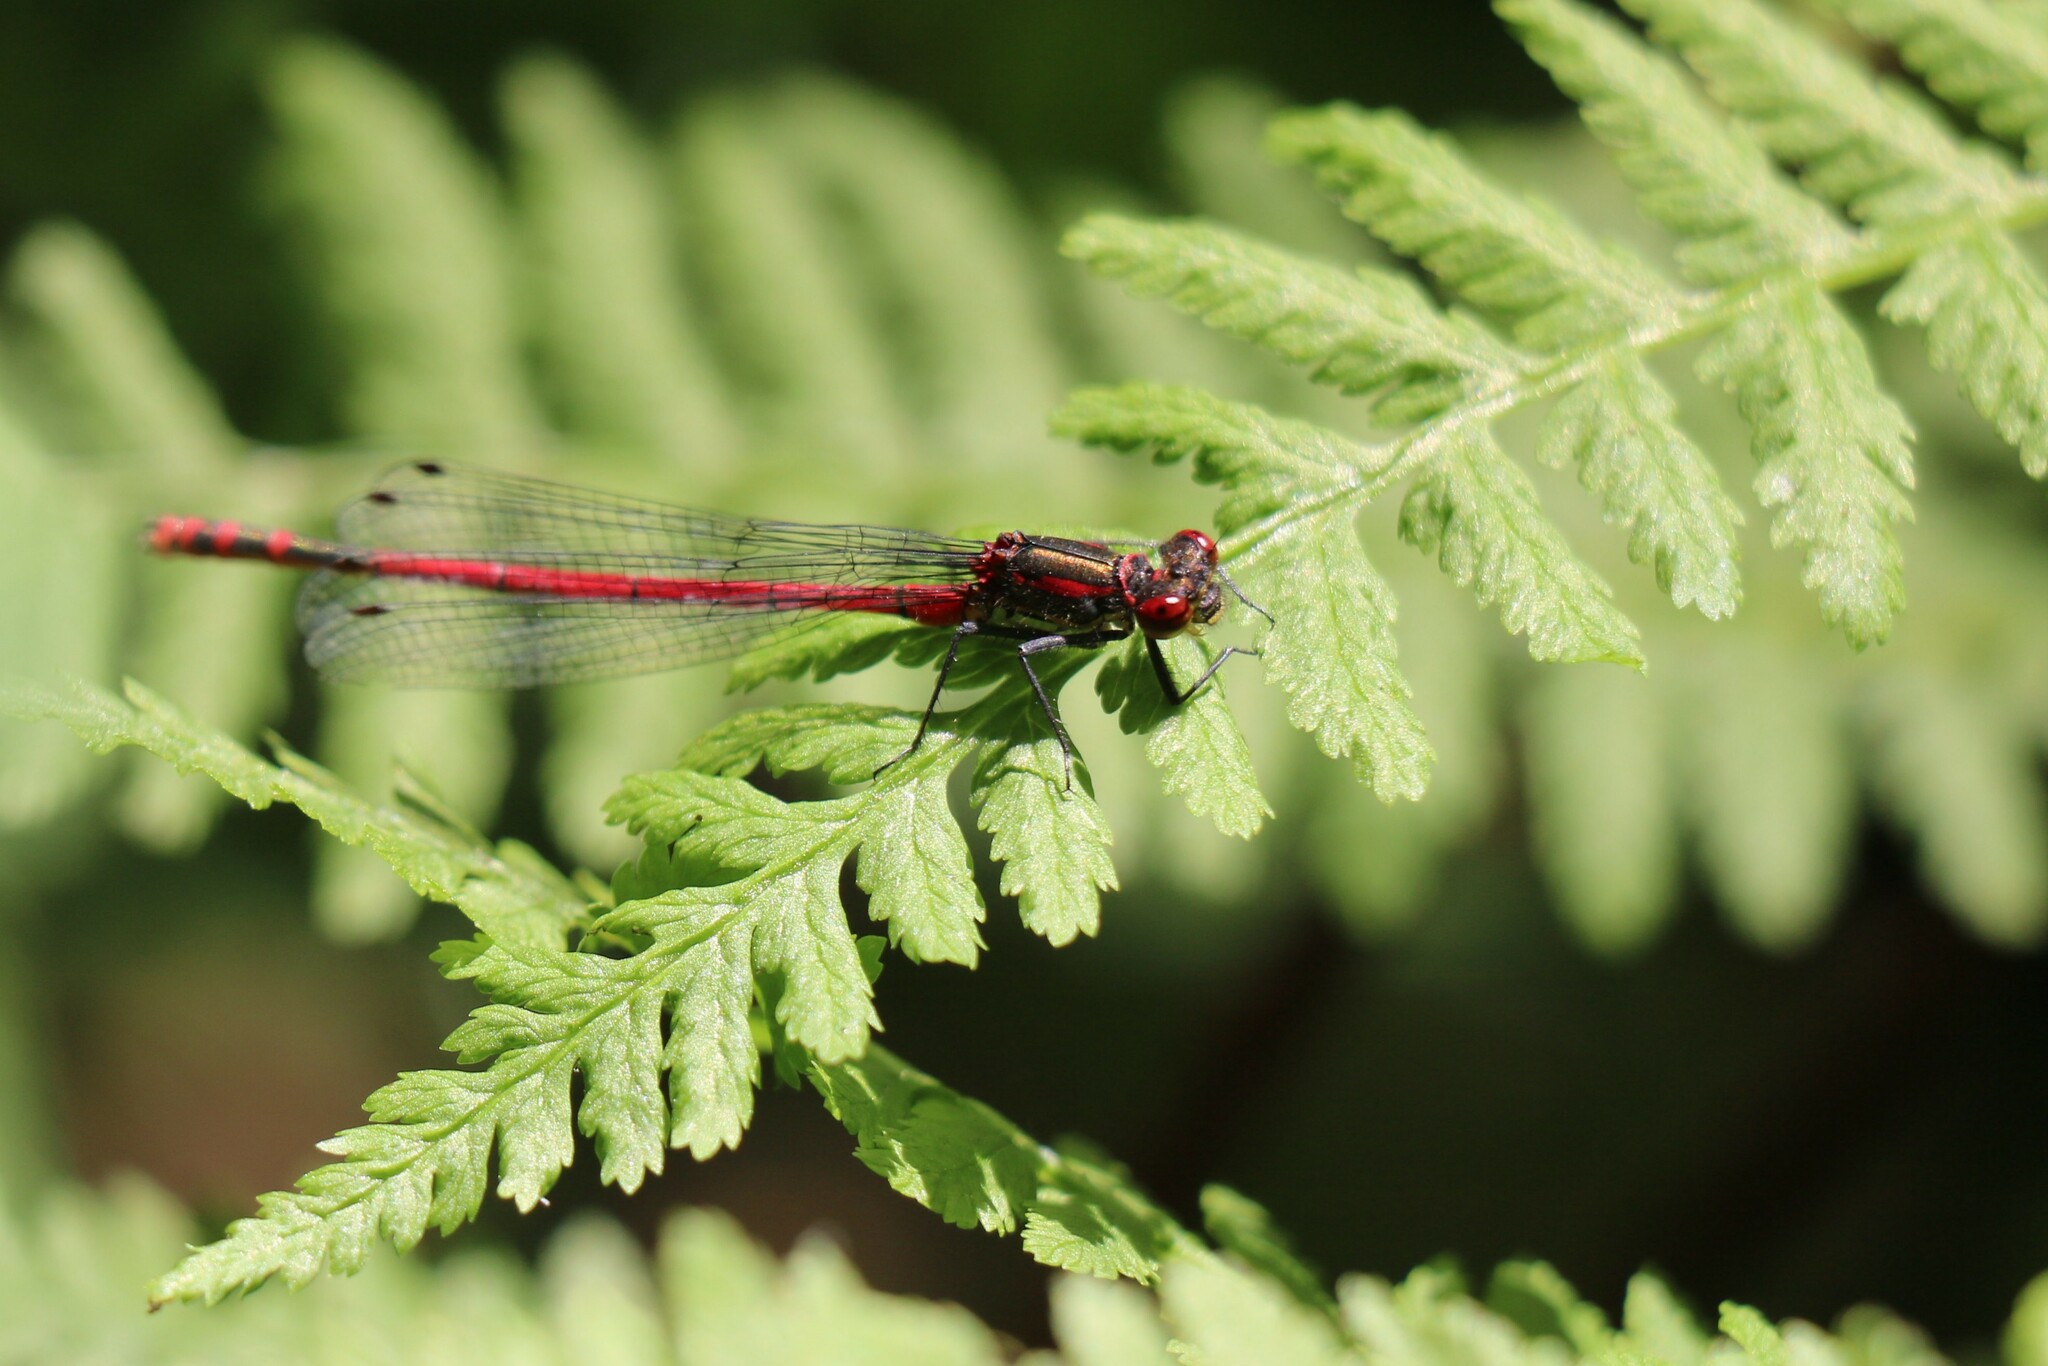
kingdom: Animalia
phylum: Arthropoda
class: Insecta
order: Odonata
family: Coenagrionidae
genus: Pyrrhosoma
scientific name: Pyrrhosoma nymphula
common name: Large red damsel
